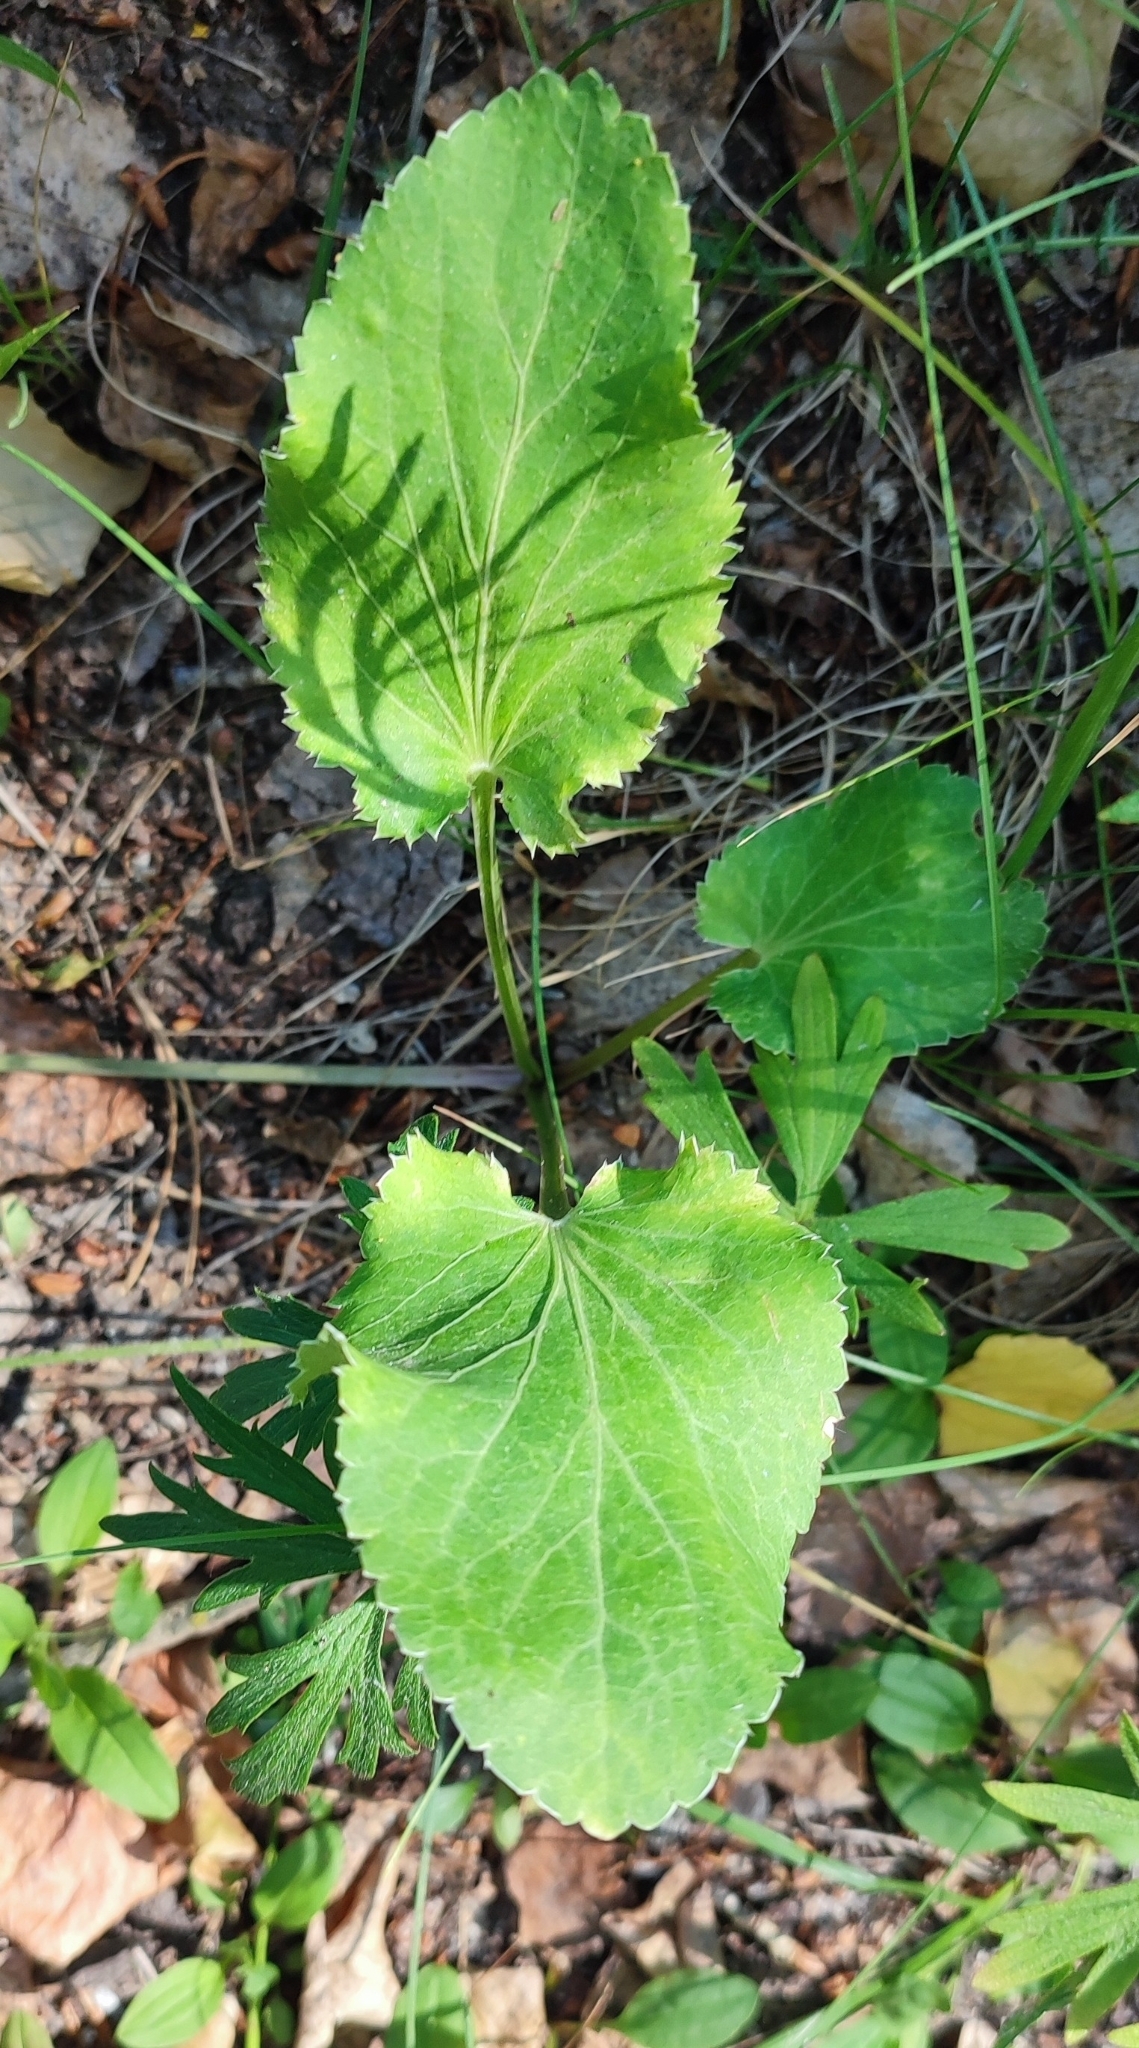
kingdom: Plantae
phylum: Tracheophyta
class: Magnoliopsida
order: Apiales
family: Apiaceae
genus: Eryngium
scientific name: Eryngium planum
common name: Blue eryngo
